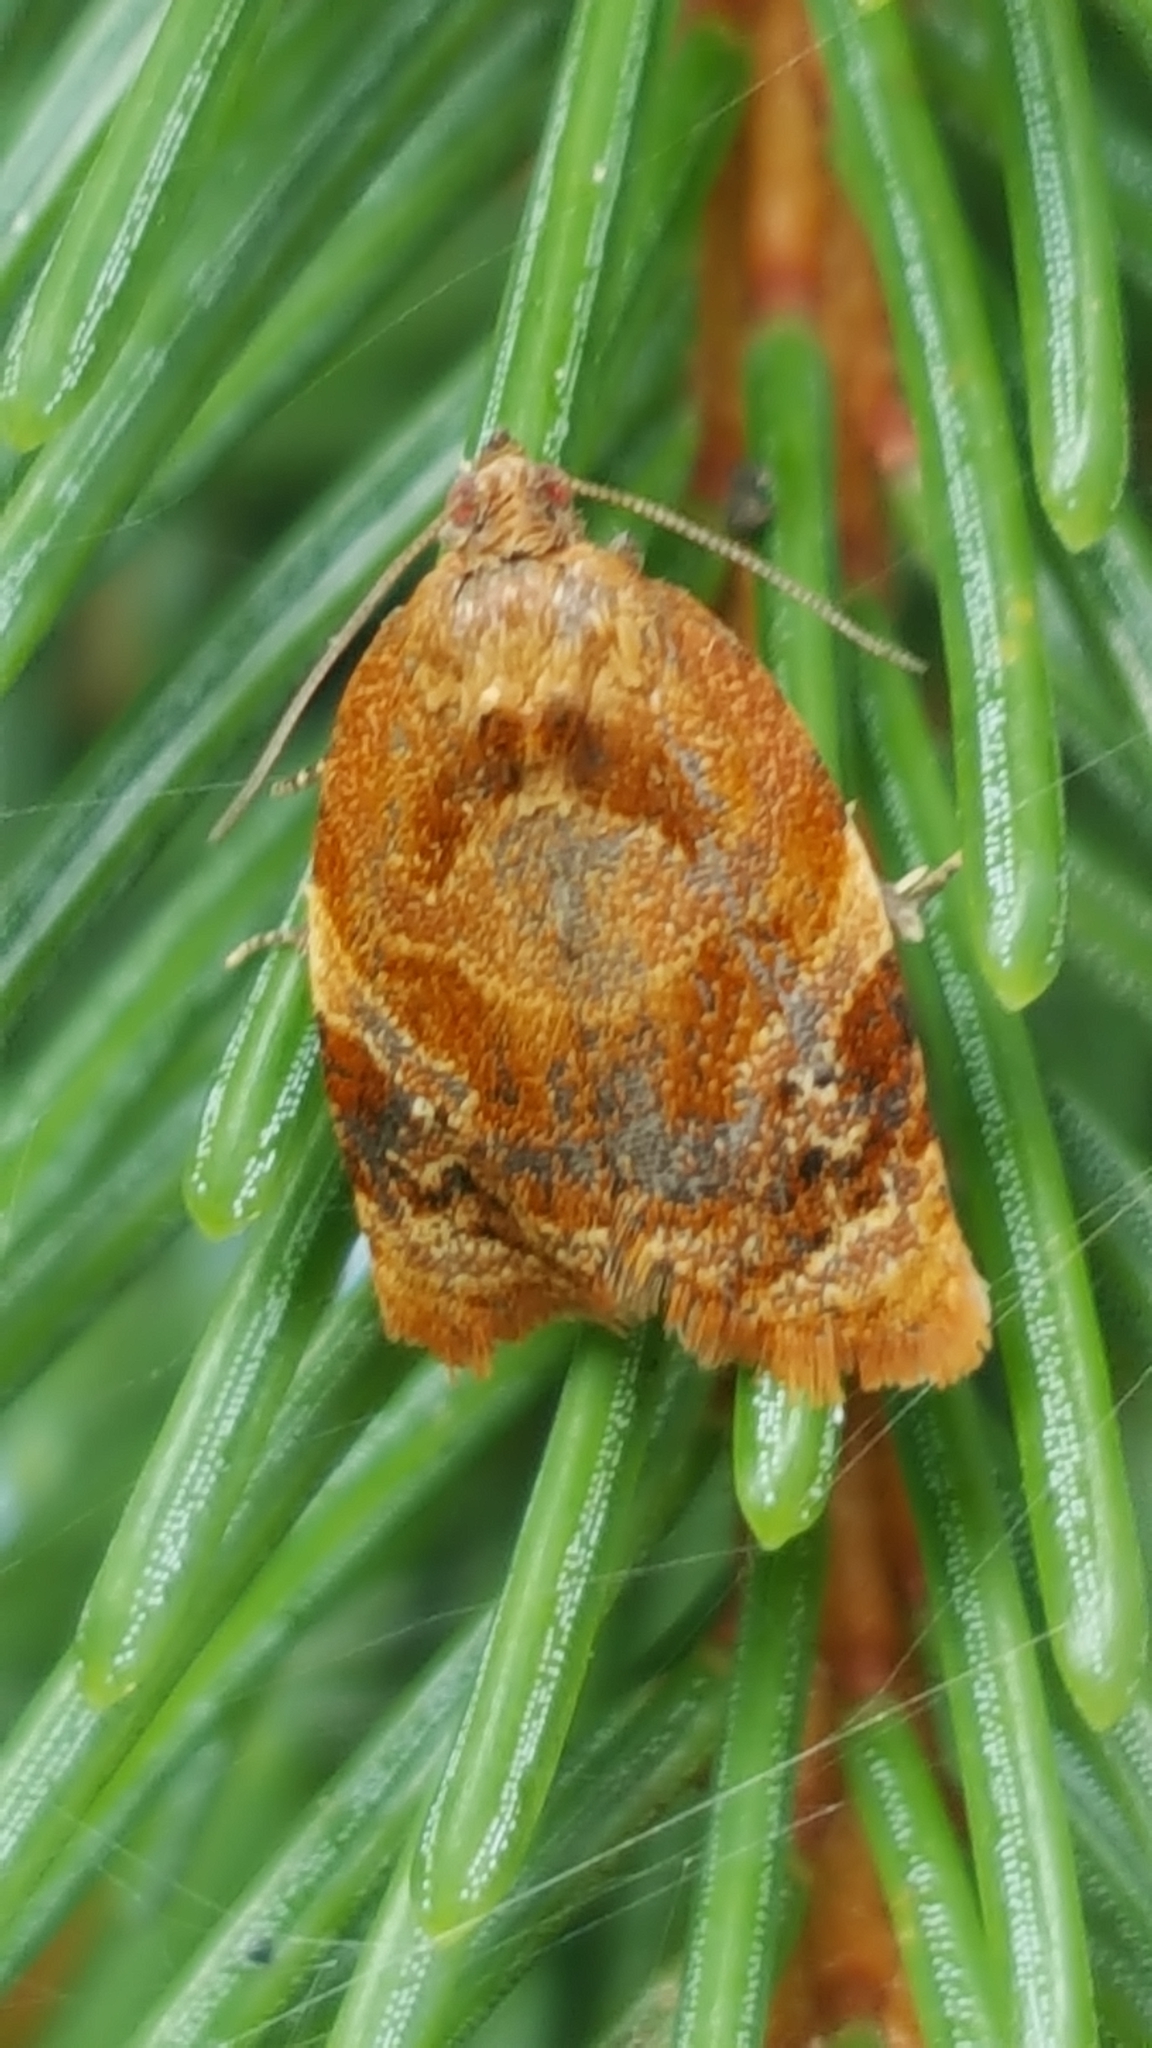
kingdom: Animalia
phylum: Arthropoda
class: Insecta
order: Lepidoptera
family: Tortricidae
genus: Ditula
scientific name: Ditula angustiorana
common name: Red-barred tortrix
